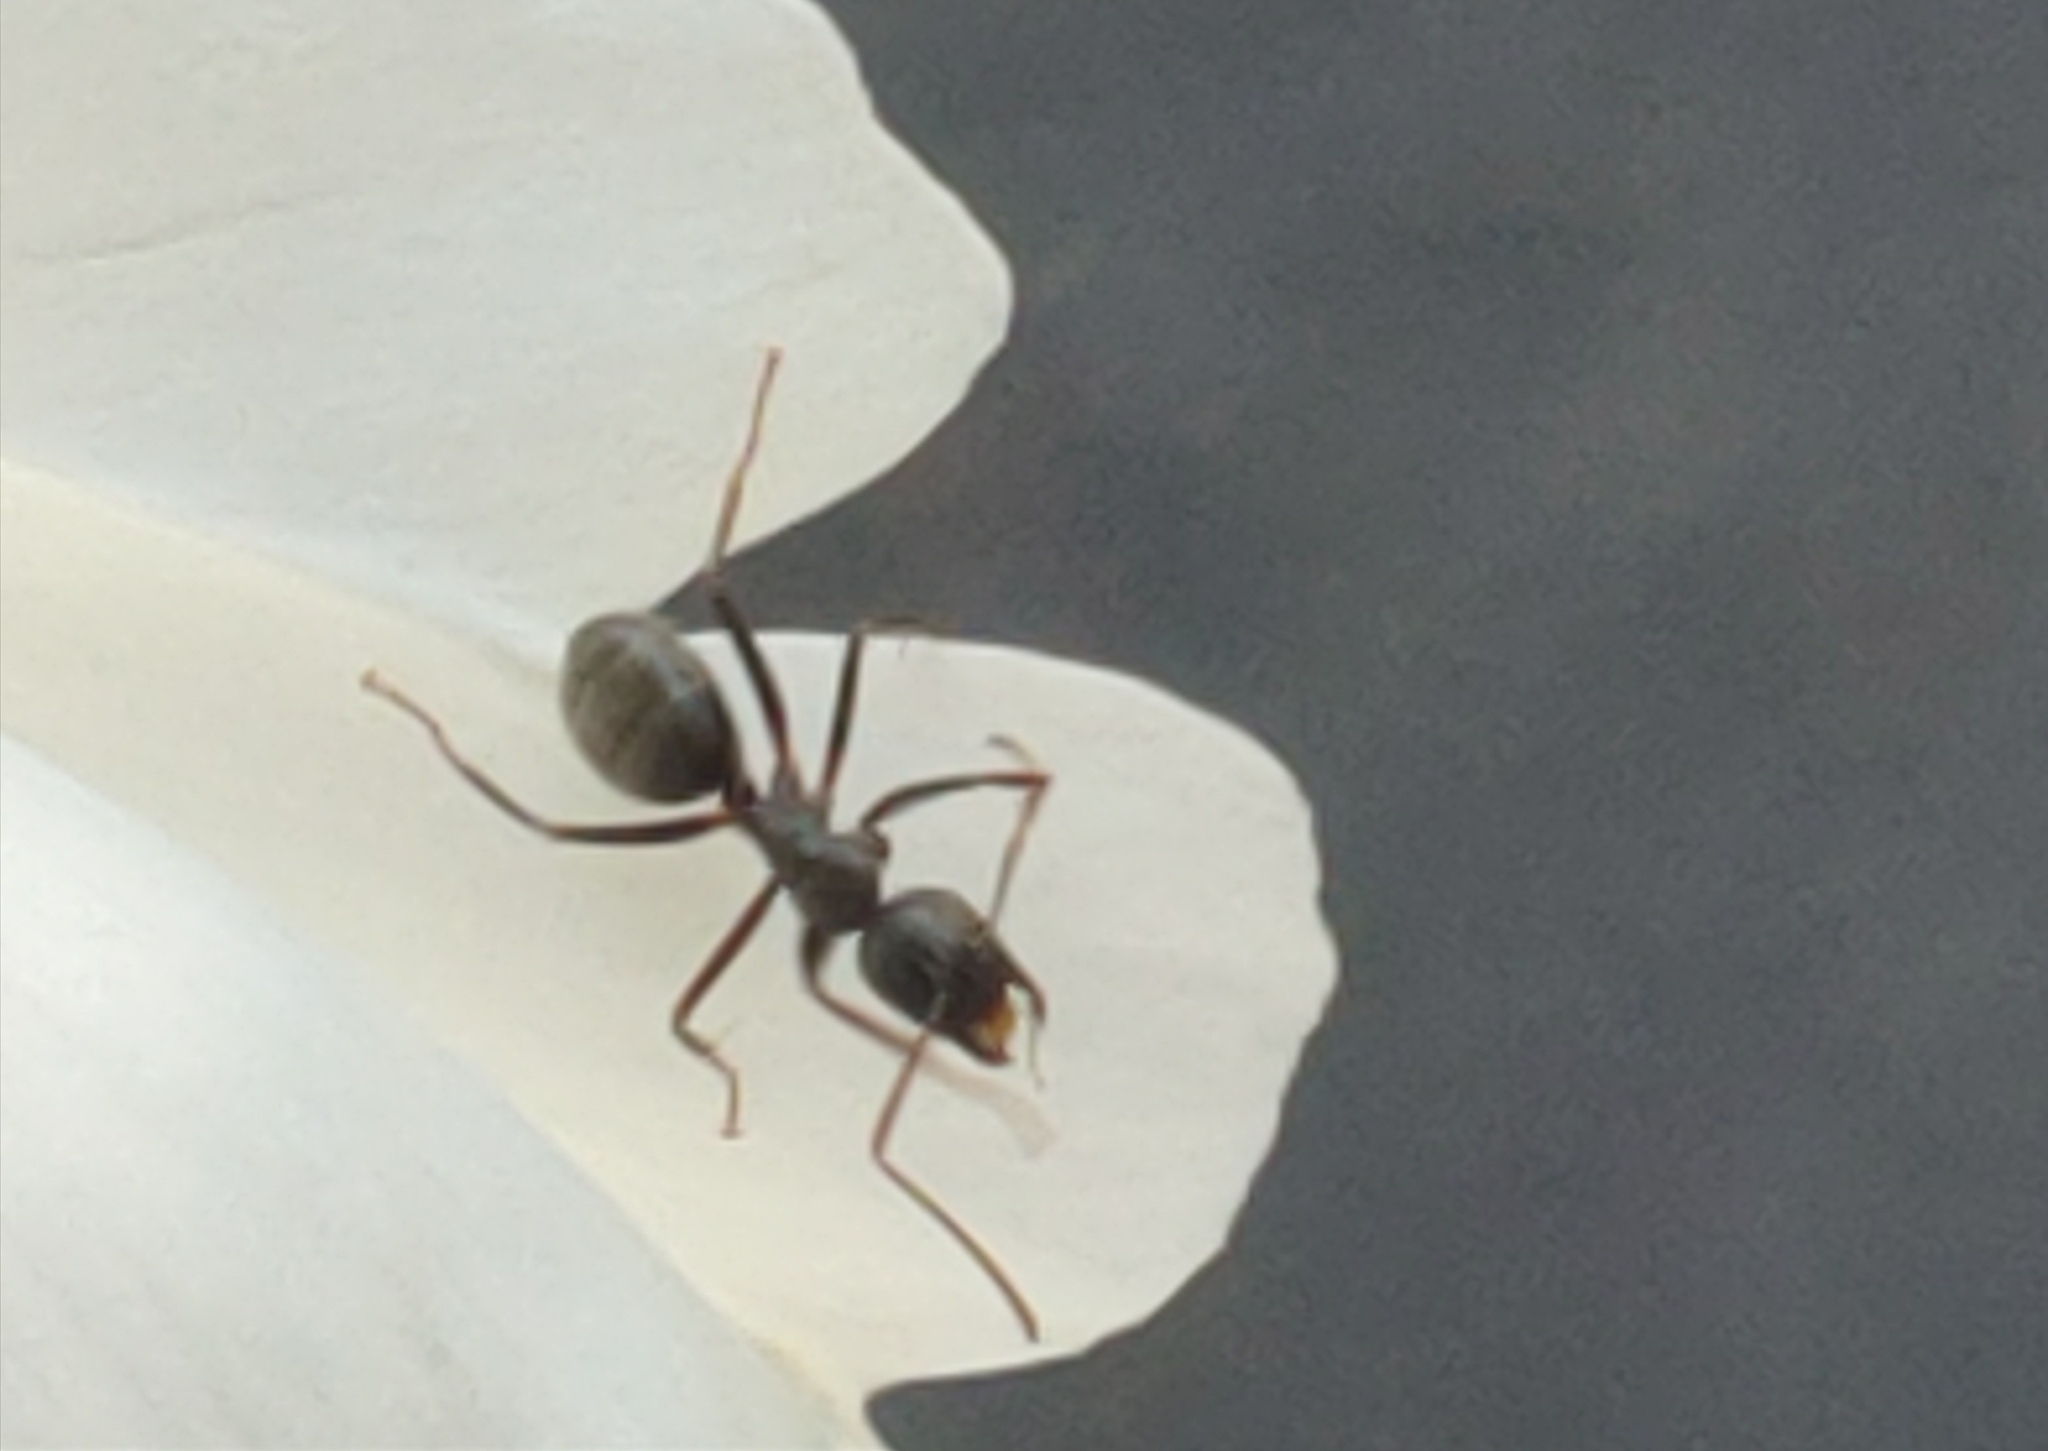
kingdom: Animalia
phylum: Arthropoda
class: Insecta
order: Hymenoptera
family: Formicidae
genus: Camponotus
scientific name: Camponotus pennsylvanicus
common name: Black carpenter ant
